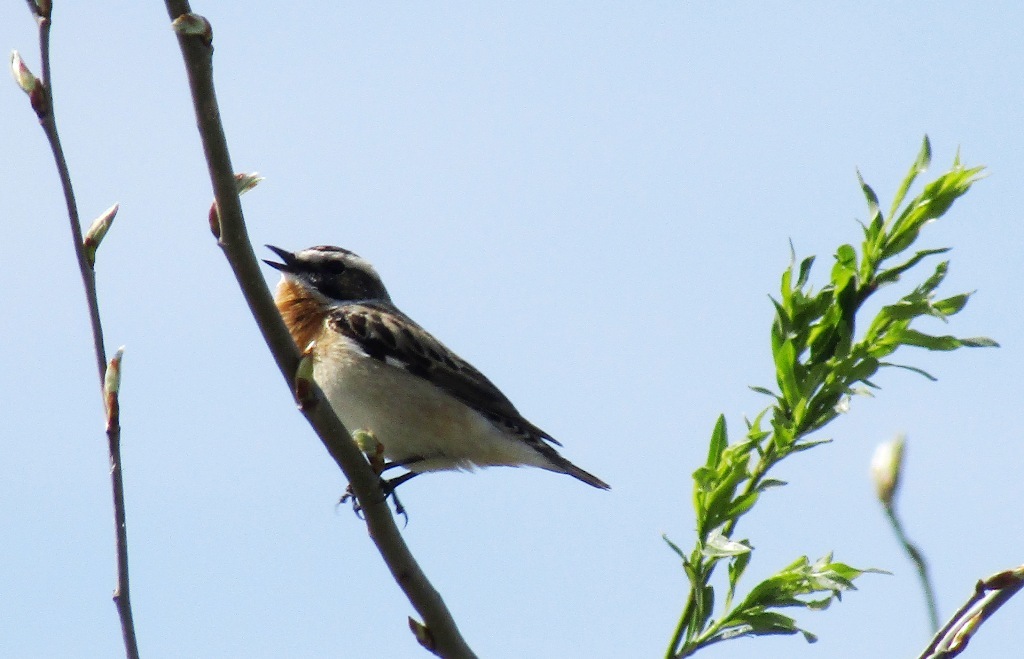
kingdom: Animalia
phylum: Chordata
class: Aves
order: Passeriformes
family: Muscicapidae
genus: Saxicola
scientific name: Saxicola rubetra
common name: Whinchat
